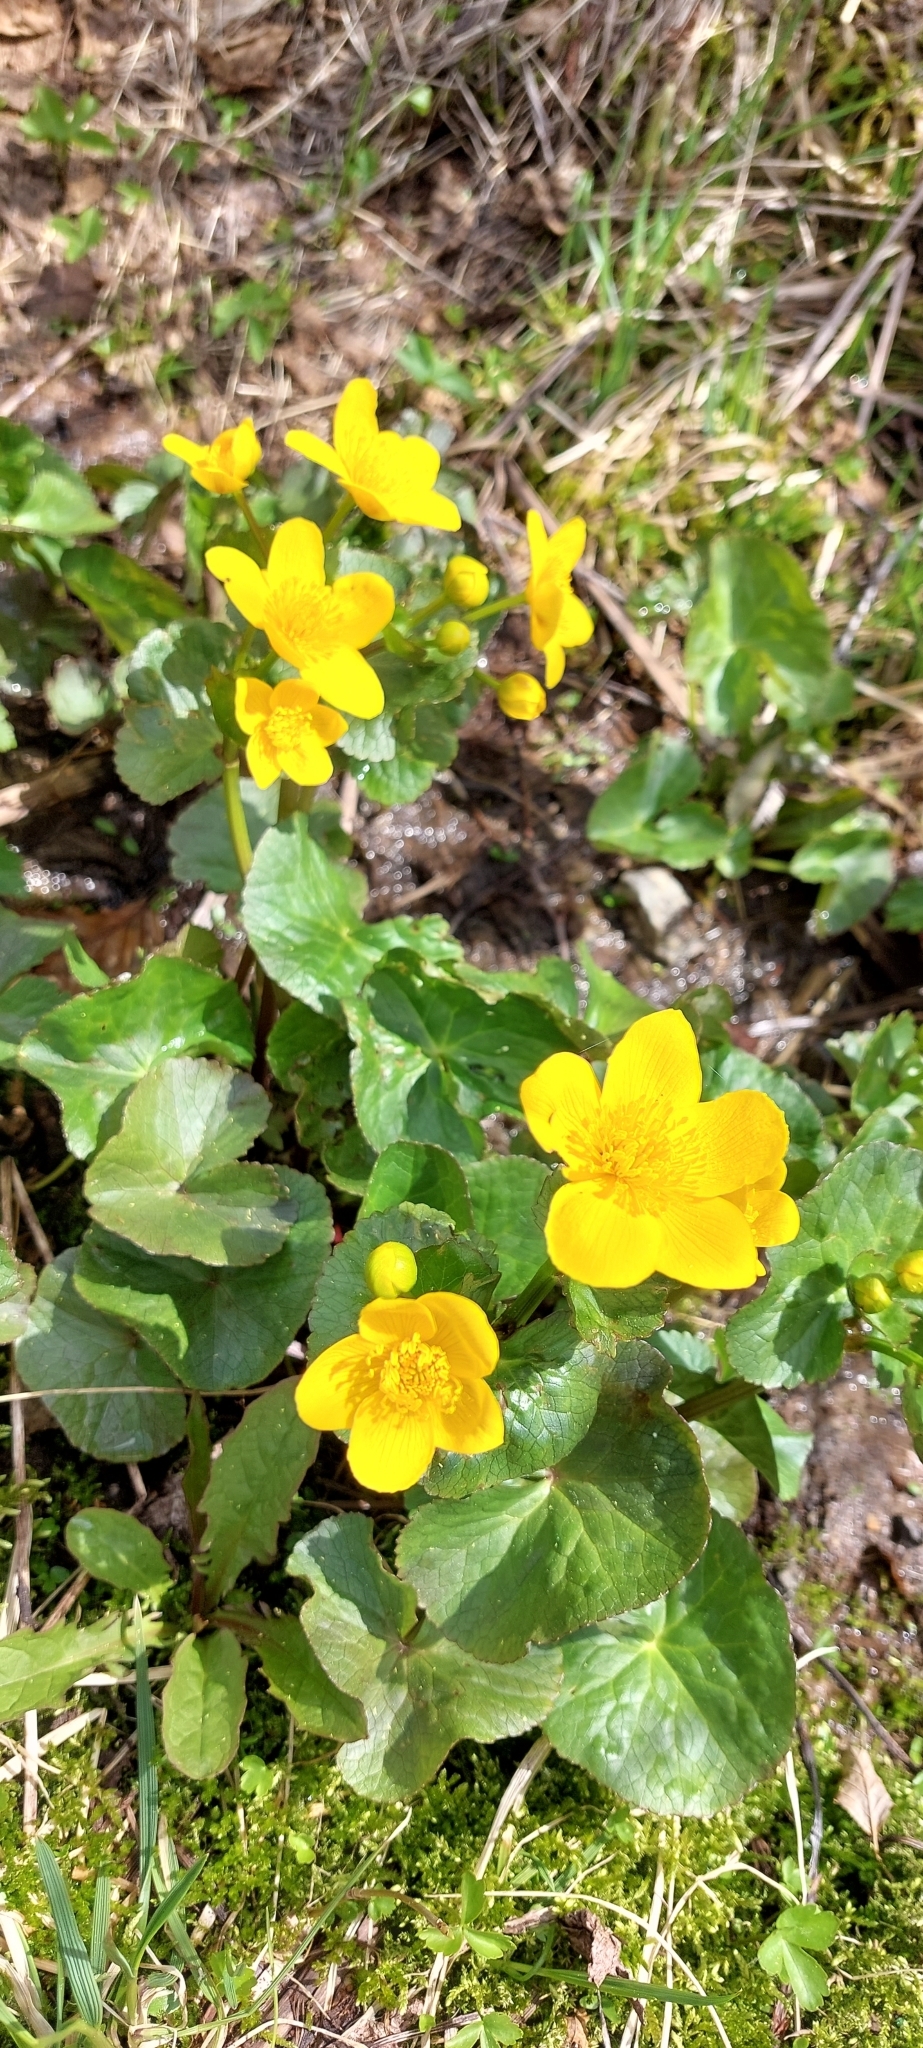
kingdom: Plantae
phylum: Tracheophyta
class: Magnoliopsida
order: Ranunculales
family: Ranunculaceae
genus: Caltha
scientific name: Caltha palustris
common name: Marsh marigold
